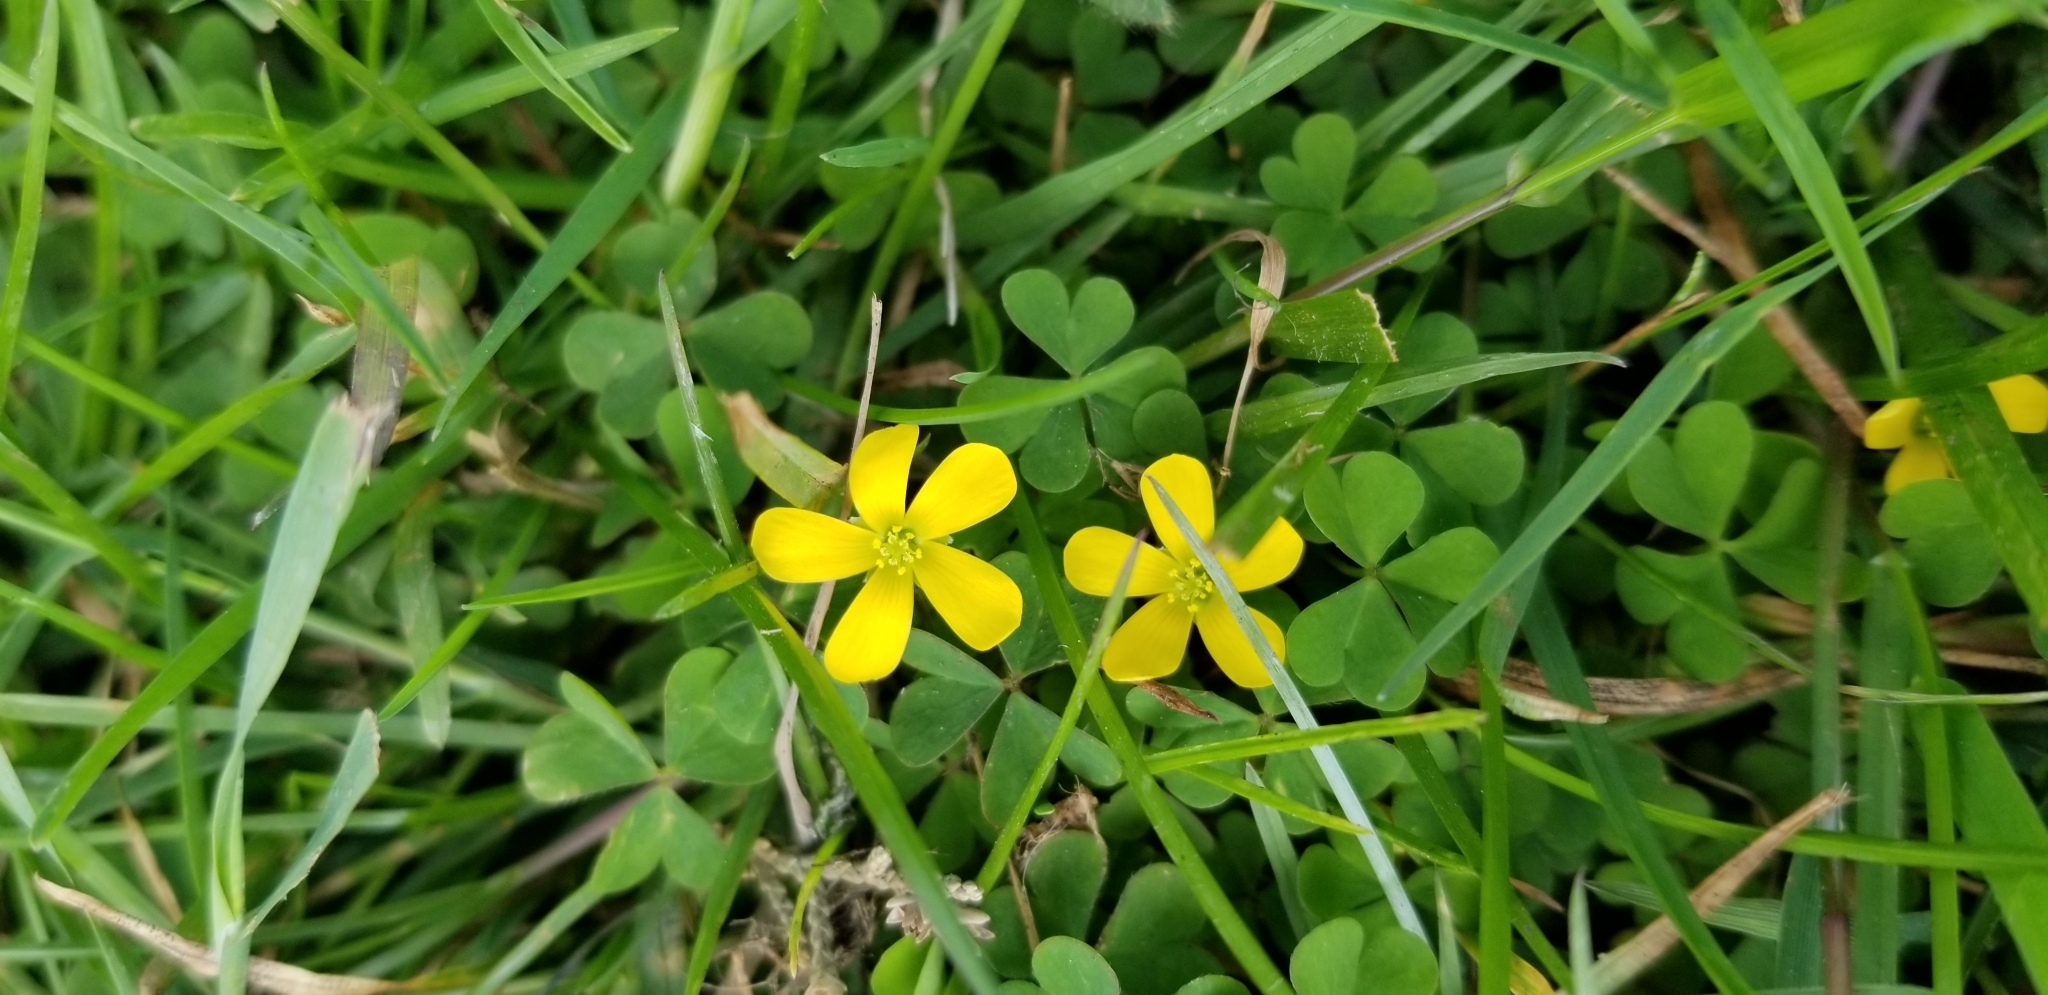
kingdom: Plantae
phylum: Tracheophyta
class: Magnoliopsida
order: Oxalidales
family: Oxalidaceae
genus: Oxalis
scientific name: Oxalis corniculata
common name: Procumbent yellow-sorrel
